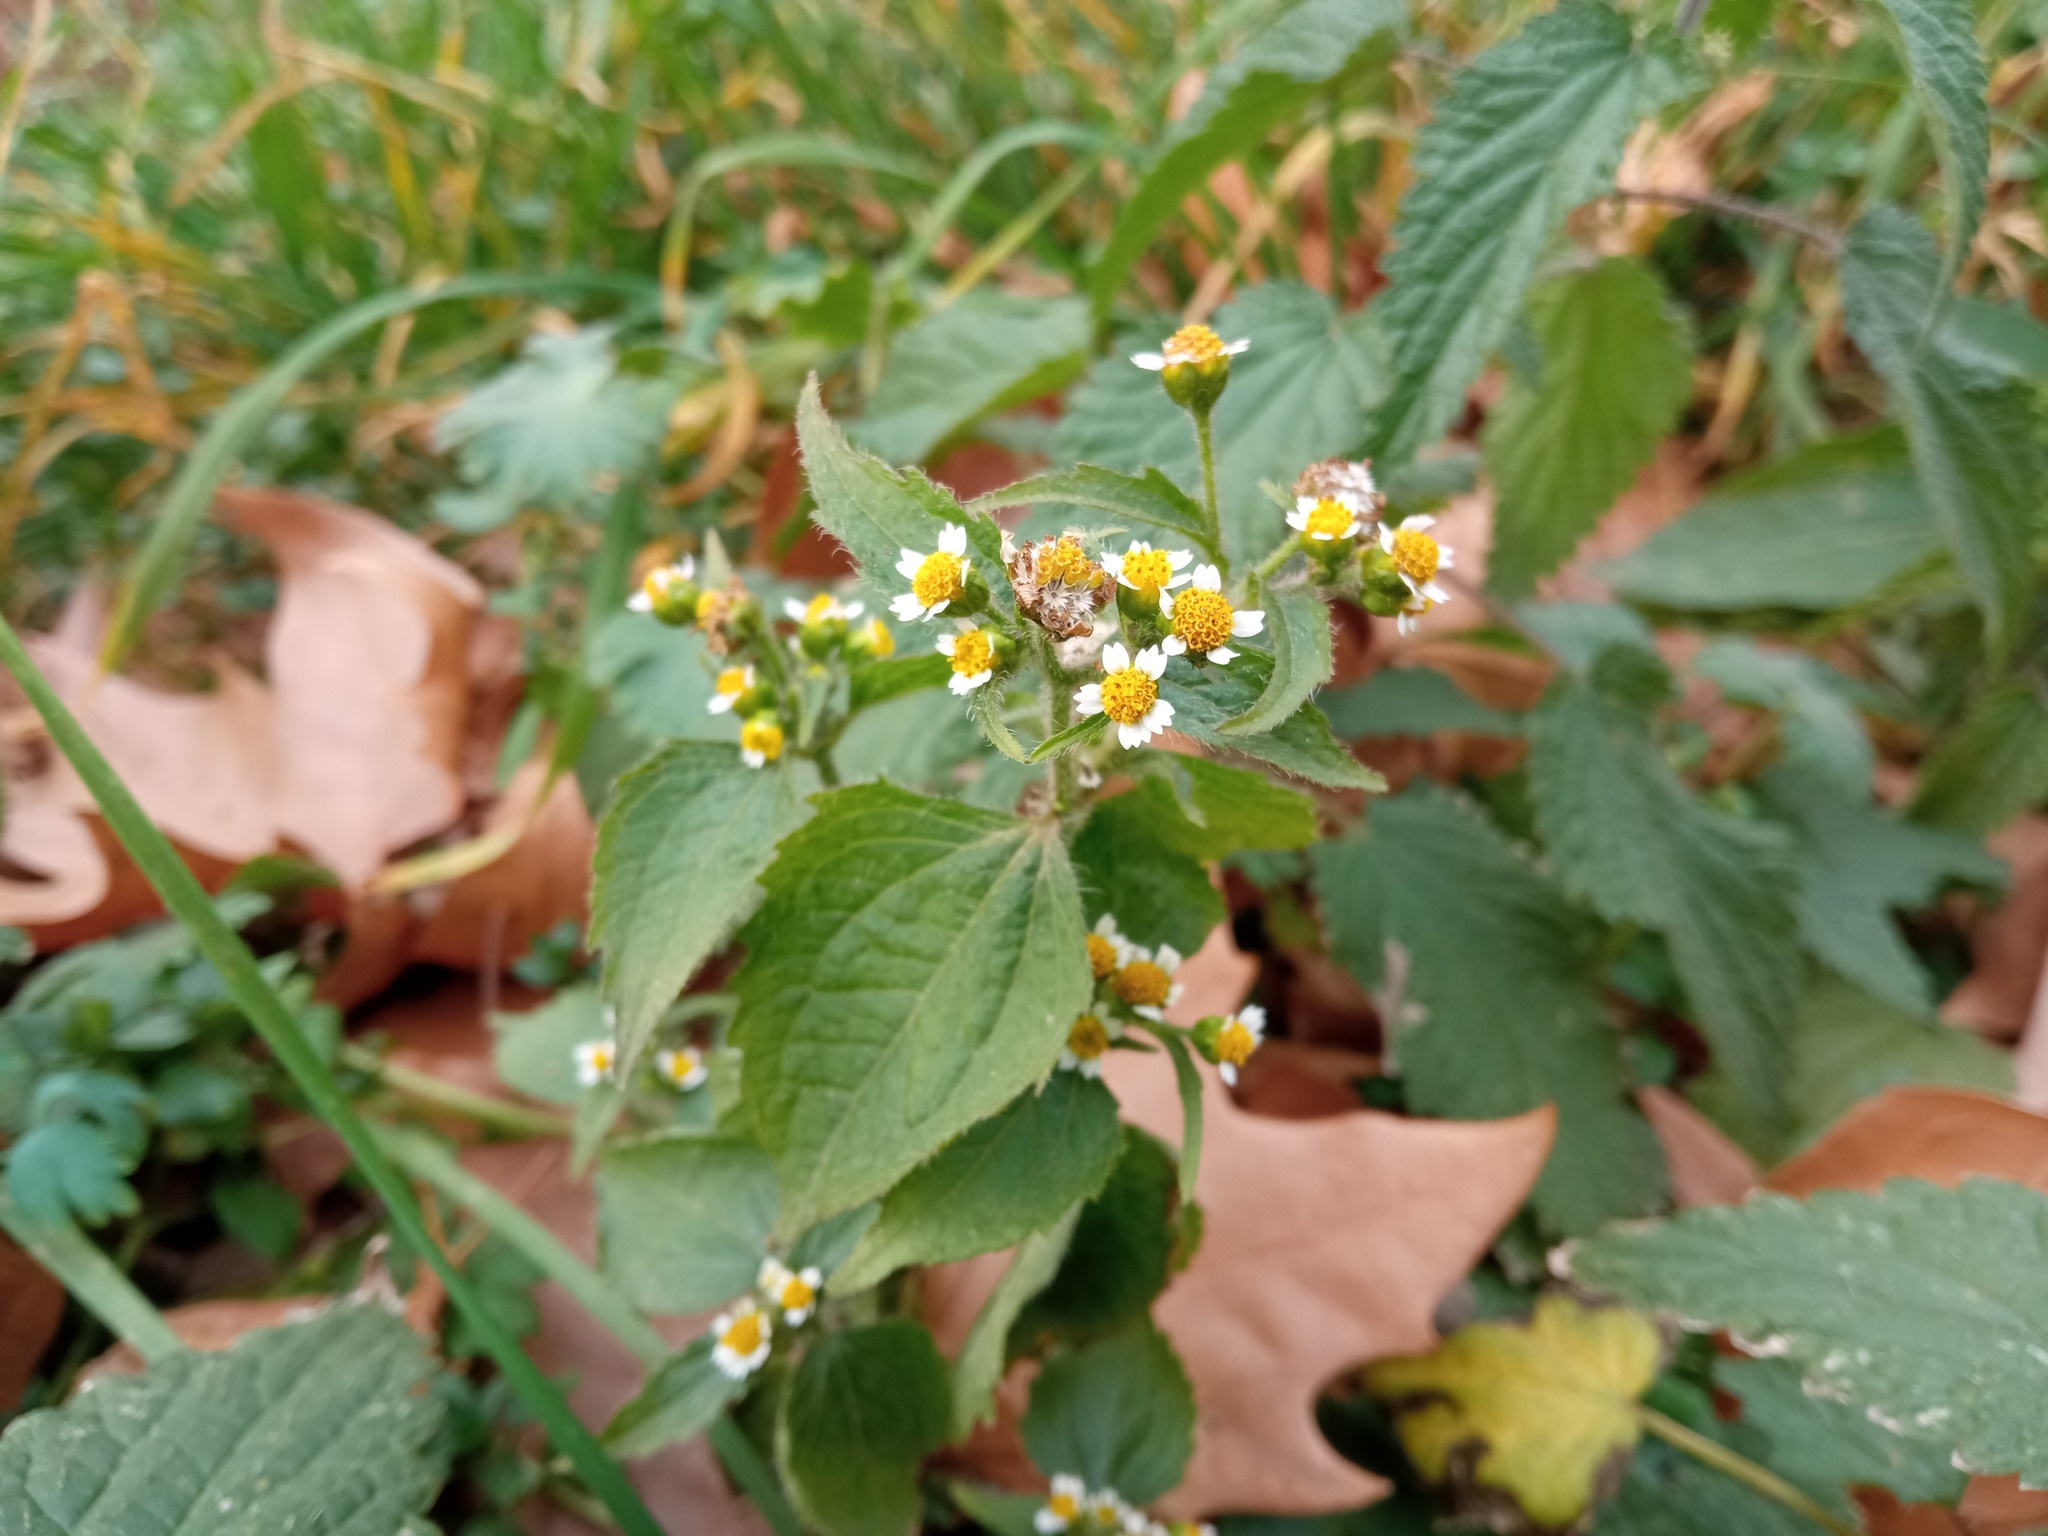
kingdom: Plantae
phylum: Tracheophyta
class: Magnoliopsida
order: Asterales
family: Asteraceae
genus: Galinsoga
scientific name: Galinsoga quadriradiata
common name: Shaggy soldier
